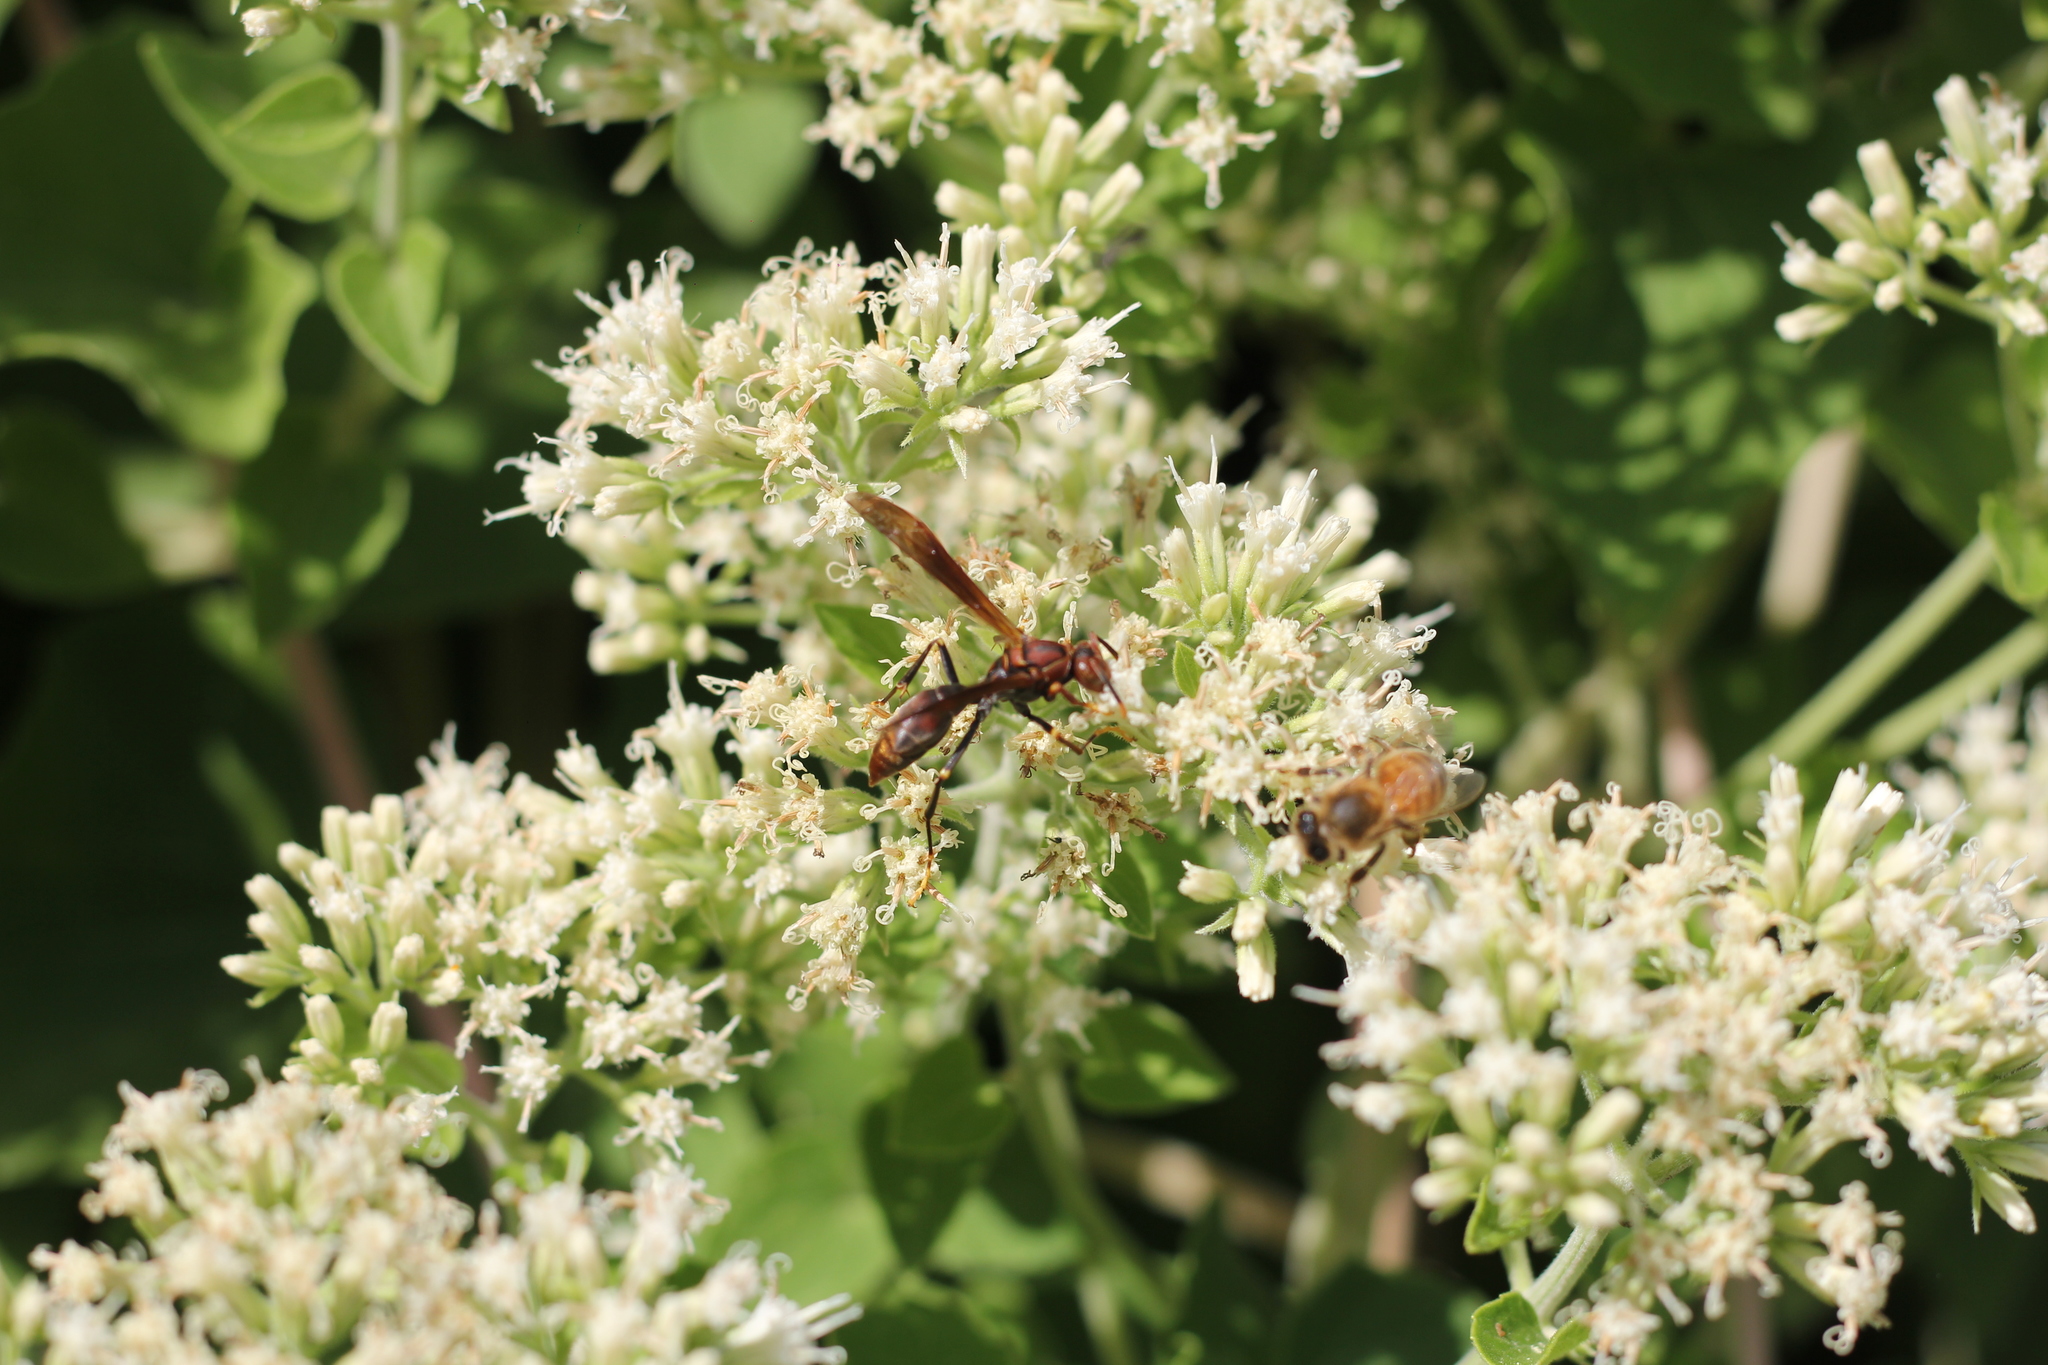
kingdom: Animalia
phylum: Arthropoda
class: Insecta
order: Hymenoptera
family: Pompilidae
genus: Aphanilopterus
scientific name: Aphanilopterus
